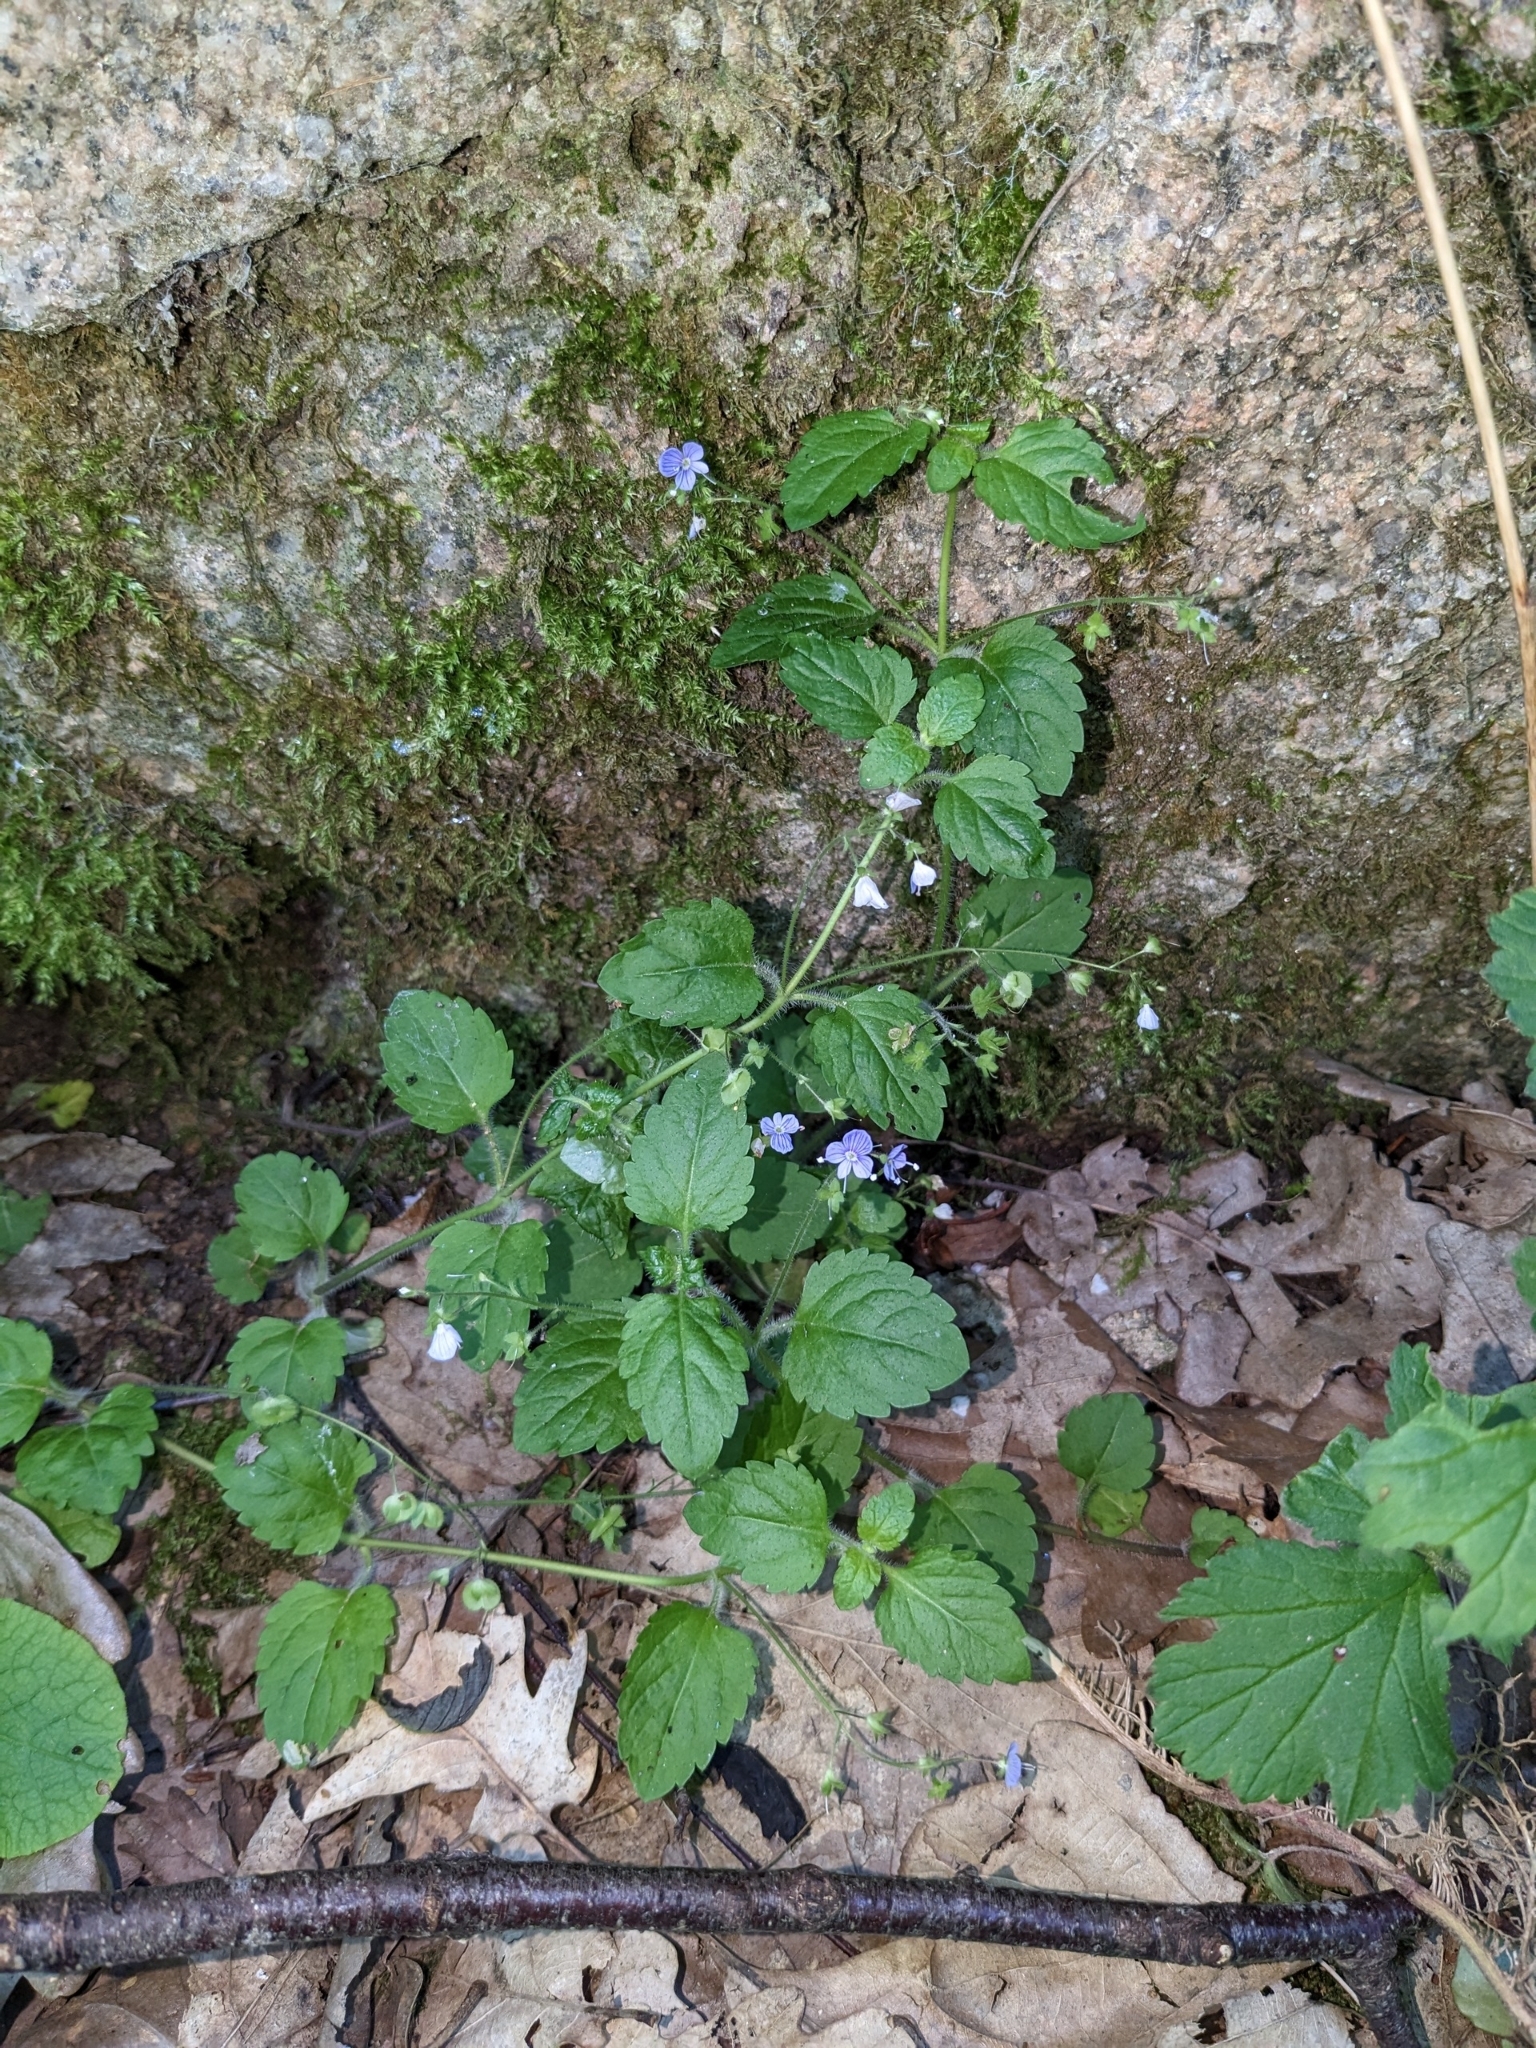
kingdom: Plantae
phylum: Tracheophyta
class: Magnoliopsida
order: Lamiales
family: Plantaginaceae
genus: Veronica
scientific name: Veronica montana
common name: Wood speedwell
